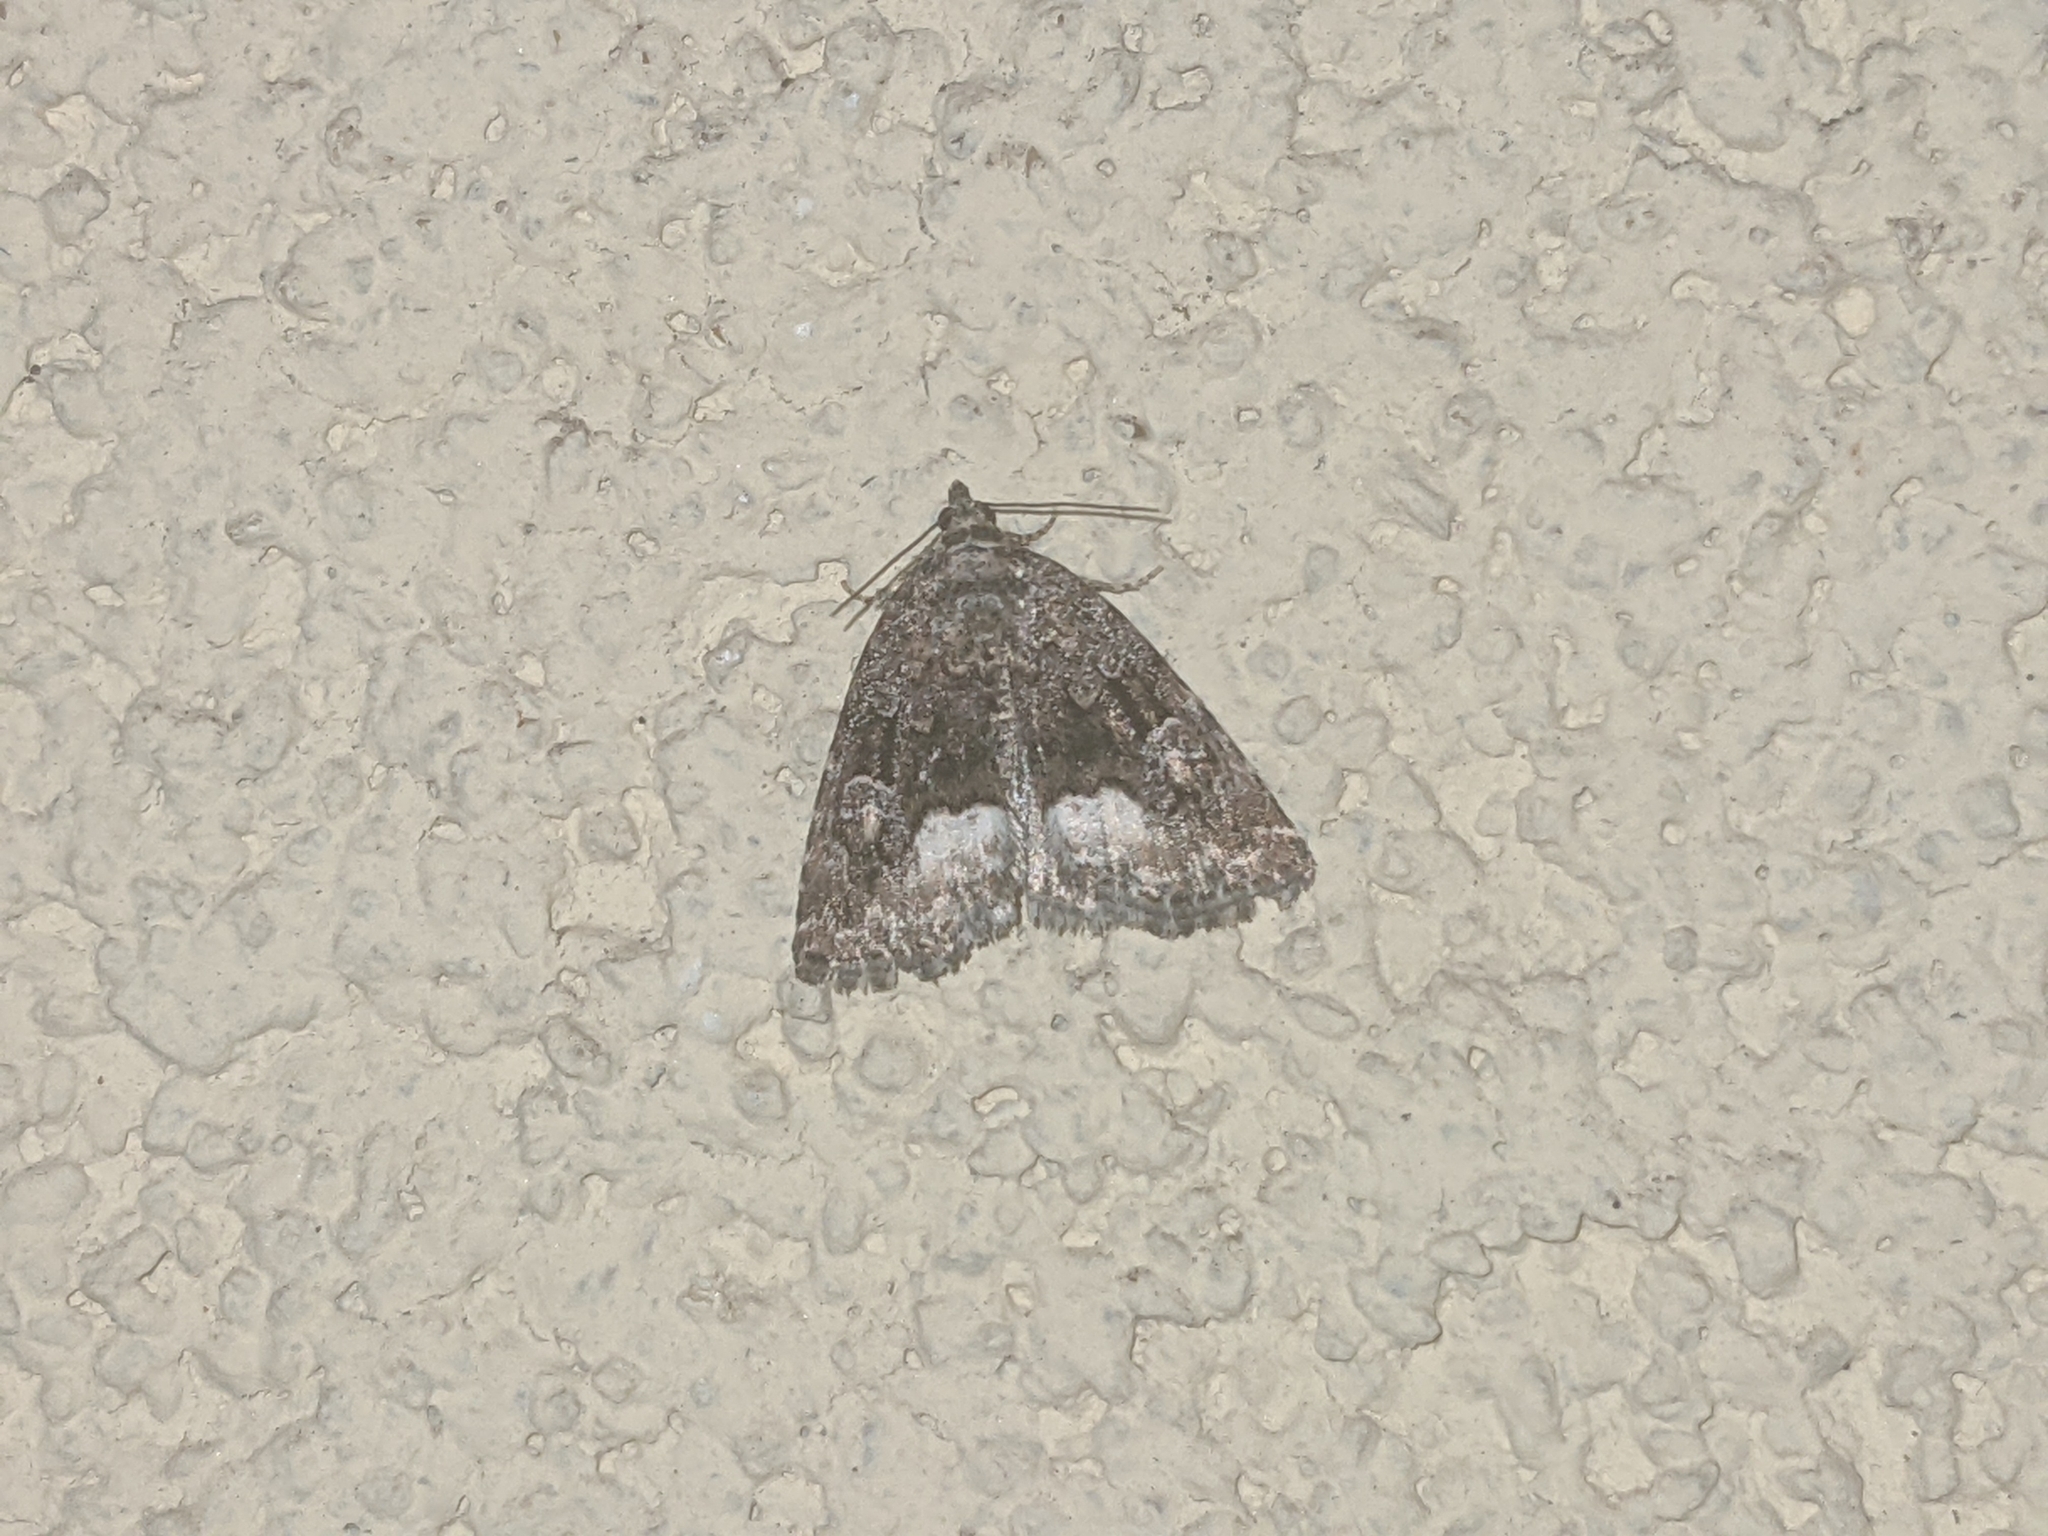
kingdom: Animalia
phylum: Arthropoda
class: Insecta
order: Lepidoptera
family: Noctuidae
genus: Deltote
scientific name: Deltote pygarga
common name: Marbled white spot
